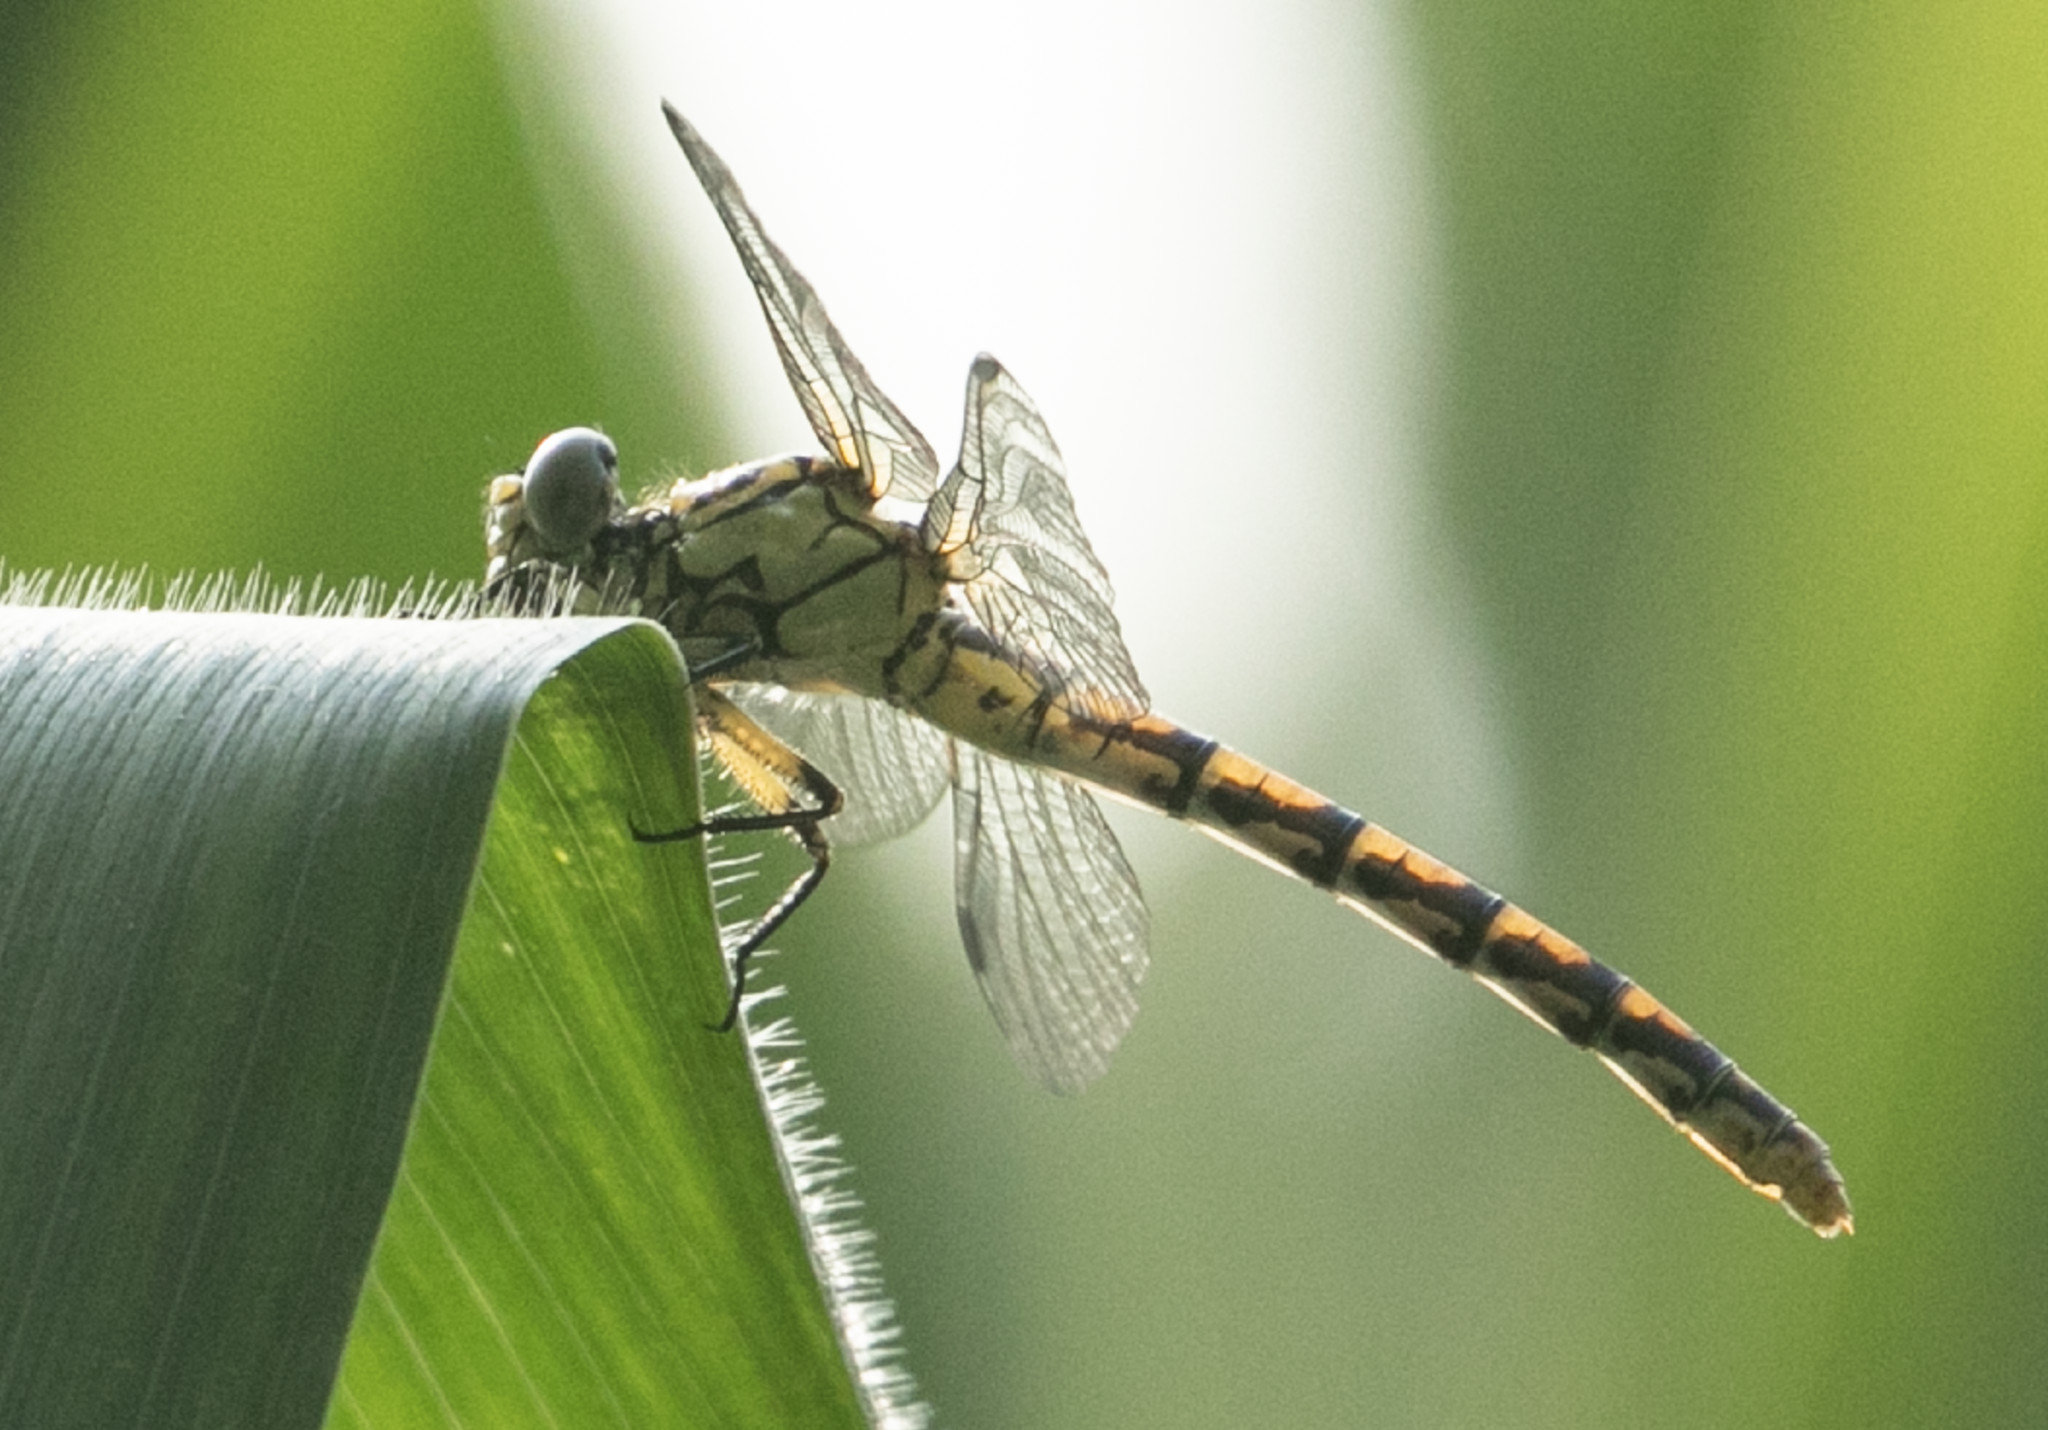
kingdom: Animalia
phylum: Arthropoda
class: Insecta
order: Odonata
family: Gomphidae
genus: Onychogomphus
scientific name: Onychogomphus forcipatus
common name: Small pincertail
